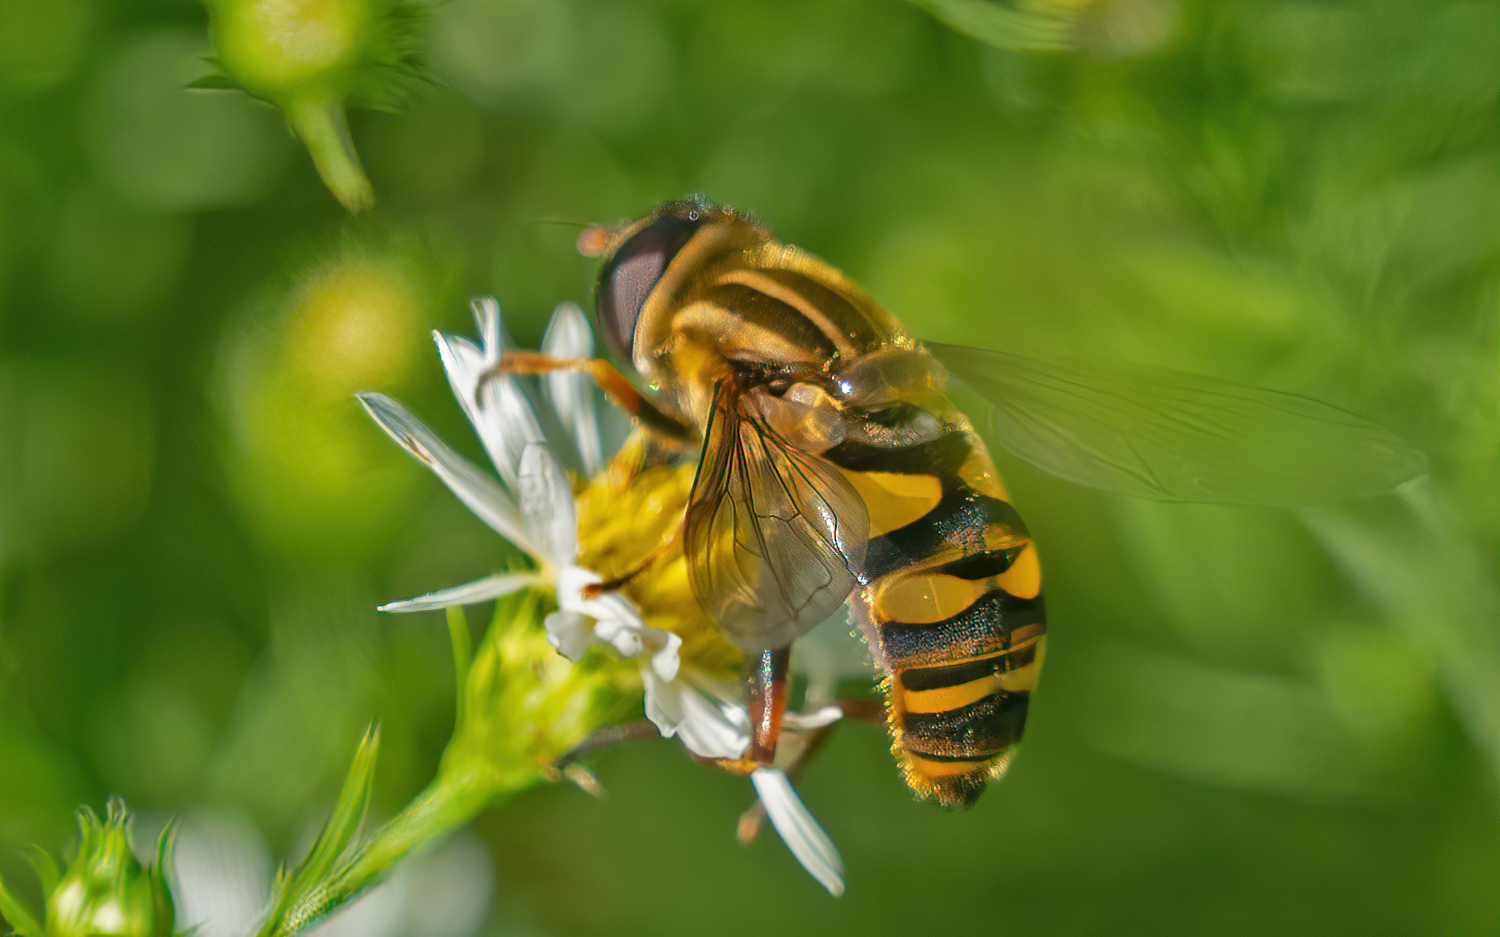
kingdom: Animalia
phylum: Arthropoda
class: Insecta
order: Diptera
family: Syrphidae
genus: Helophilus
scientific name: Helophilus fasciatus
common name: Narrow-headed marsh fly
